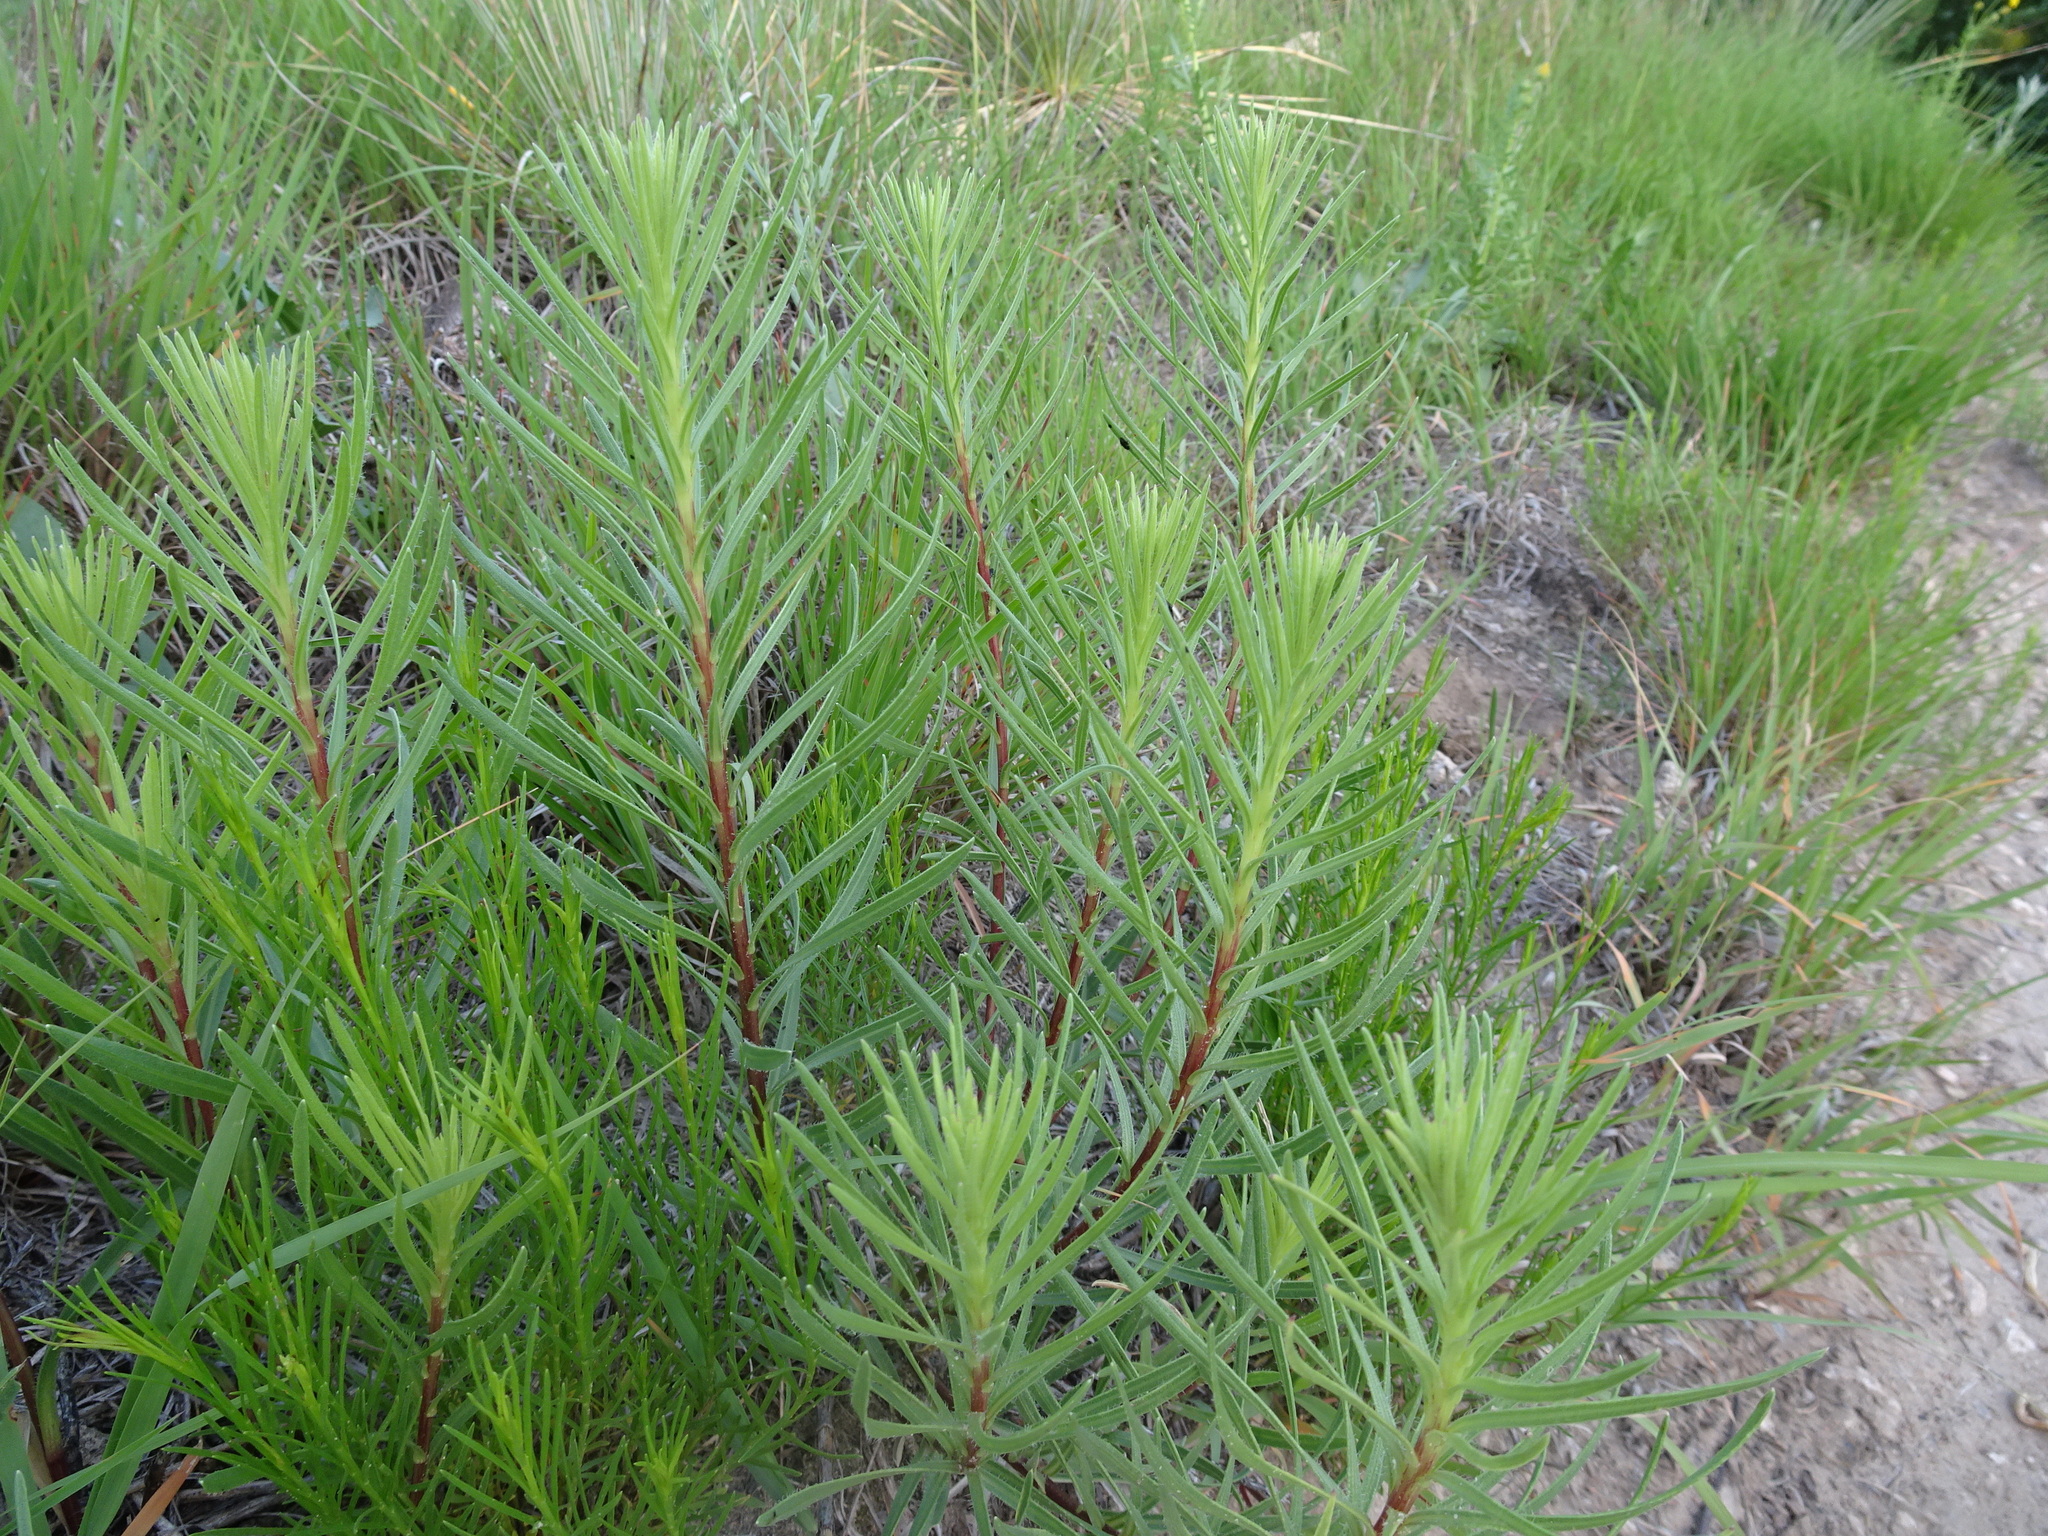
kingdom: Plantae
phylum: Tracheophyta
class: Magnoliopsida
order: Asterales
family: Asteraceae
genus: Liatris
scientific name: Liatris punctata
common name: Dotted gayfeather
